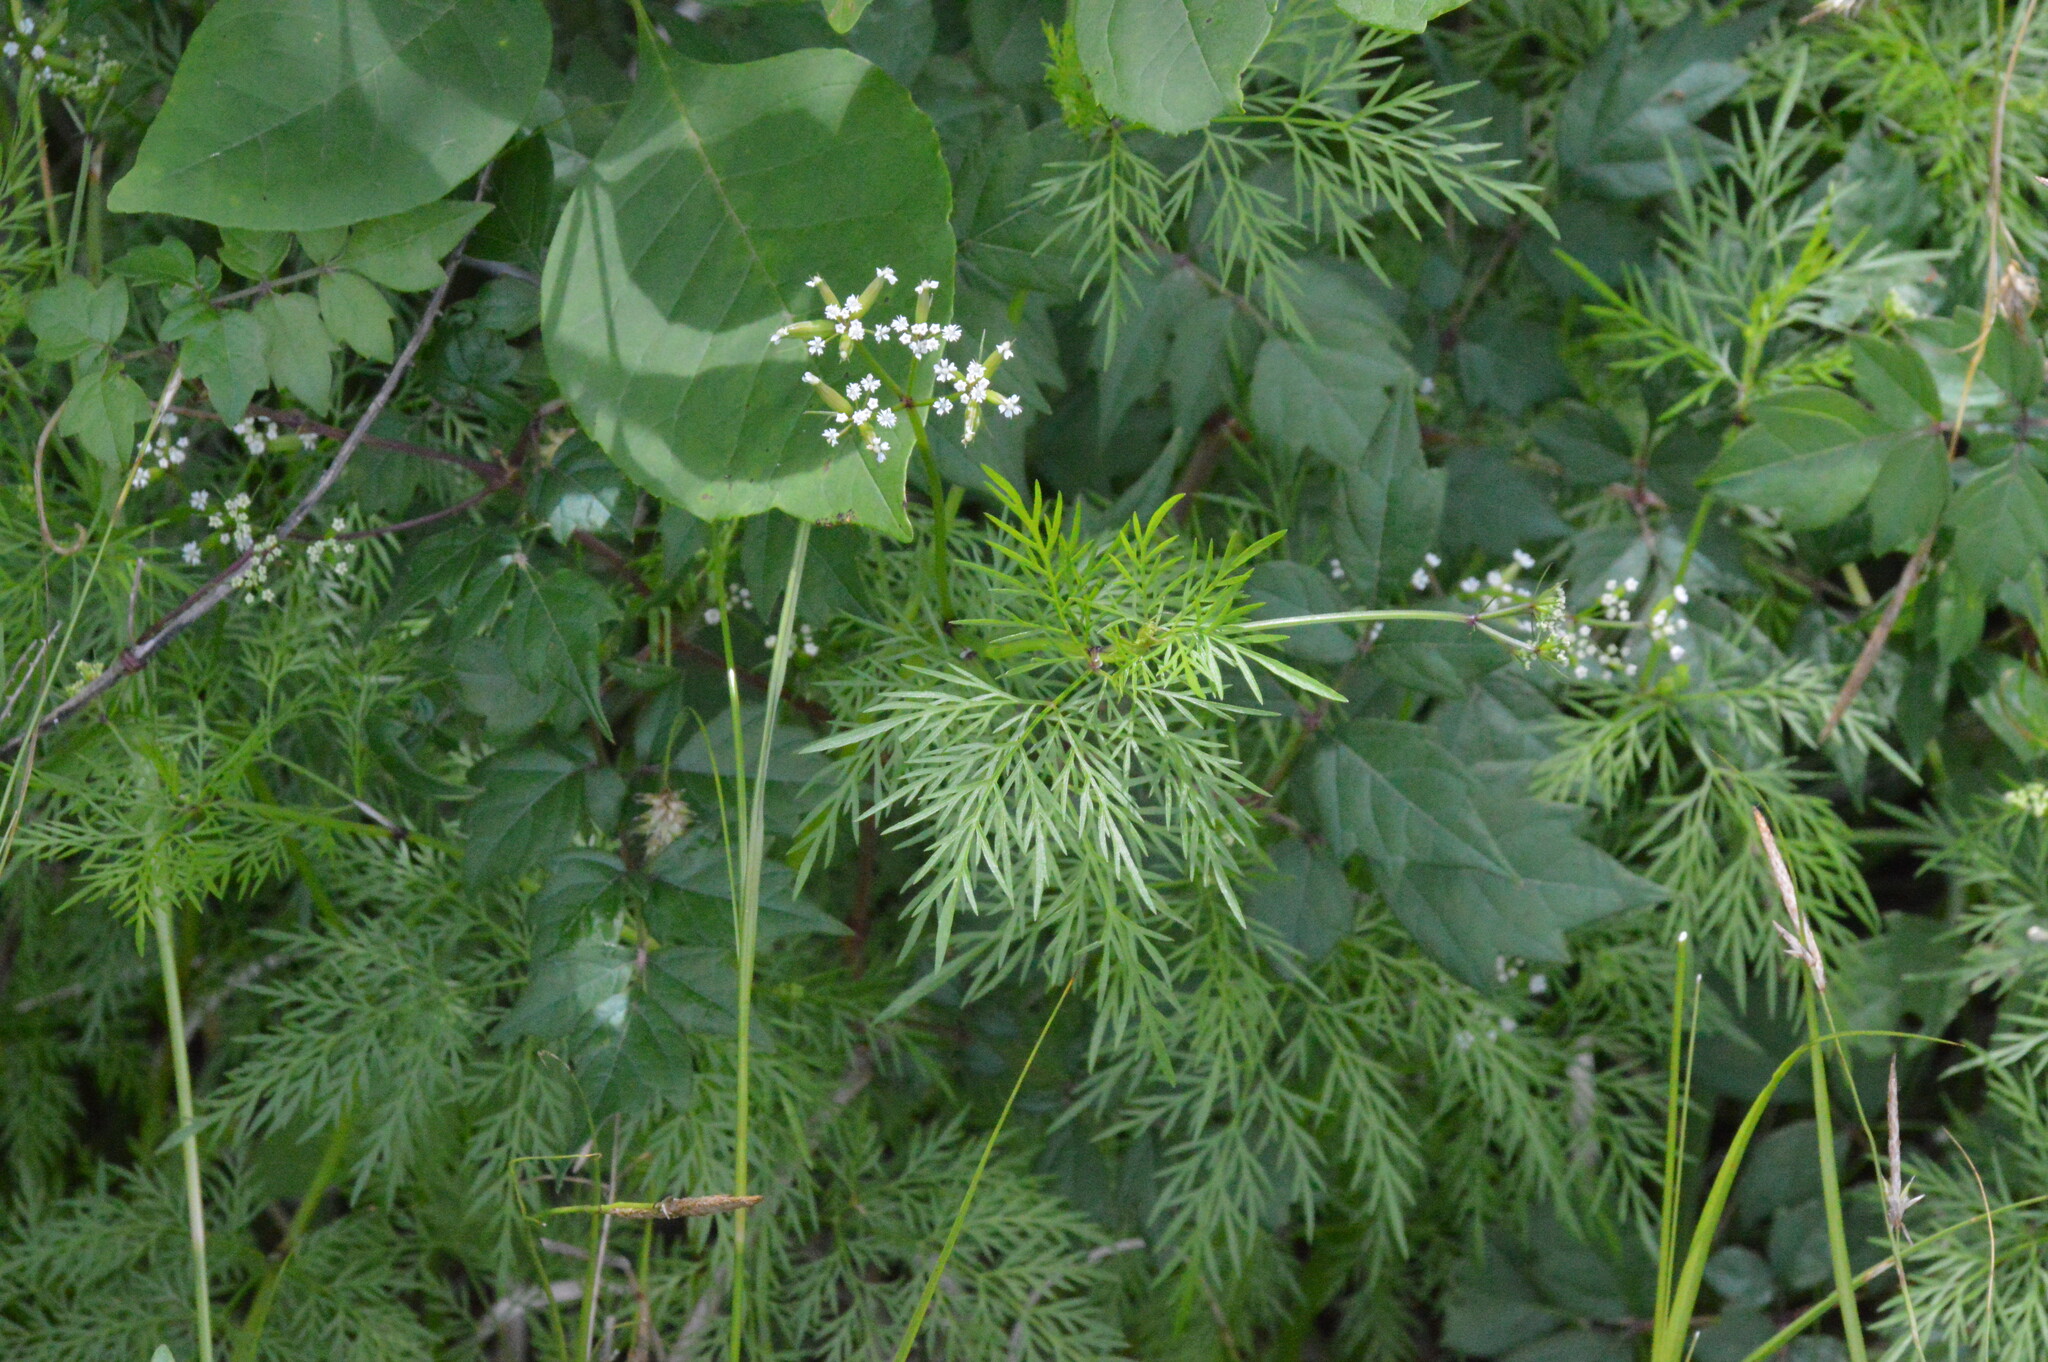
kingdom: Plantae
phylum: Tracheophyta
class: Magnoliopsida
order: Apiales
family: Apiaceae
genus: Trepocarpus
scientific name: Trepocarpus aethusae
